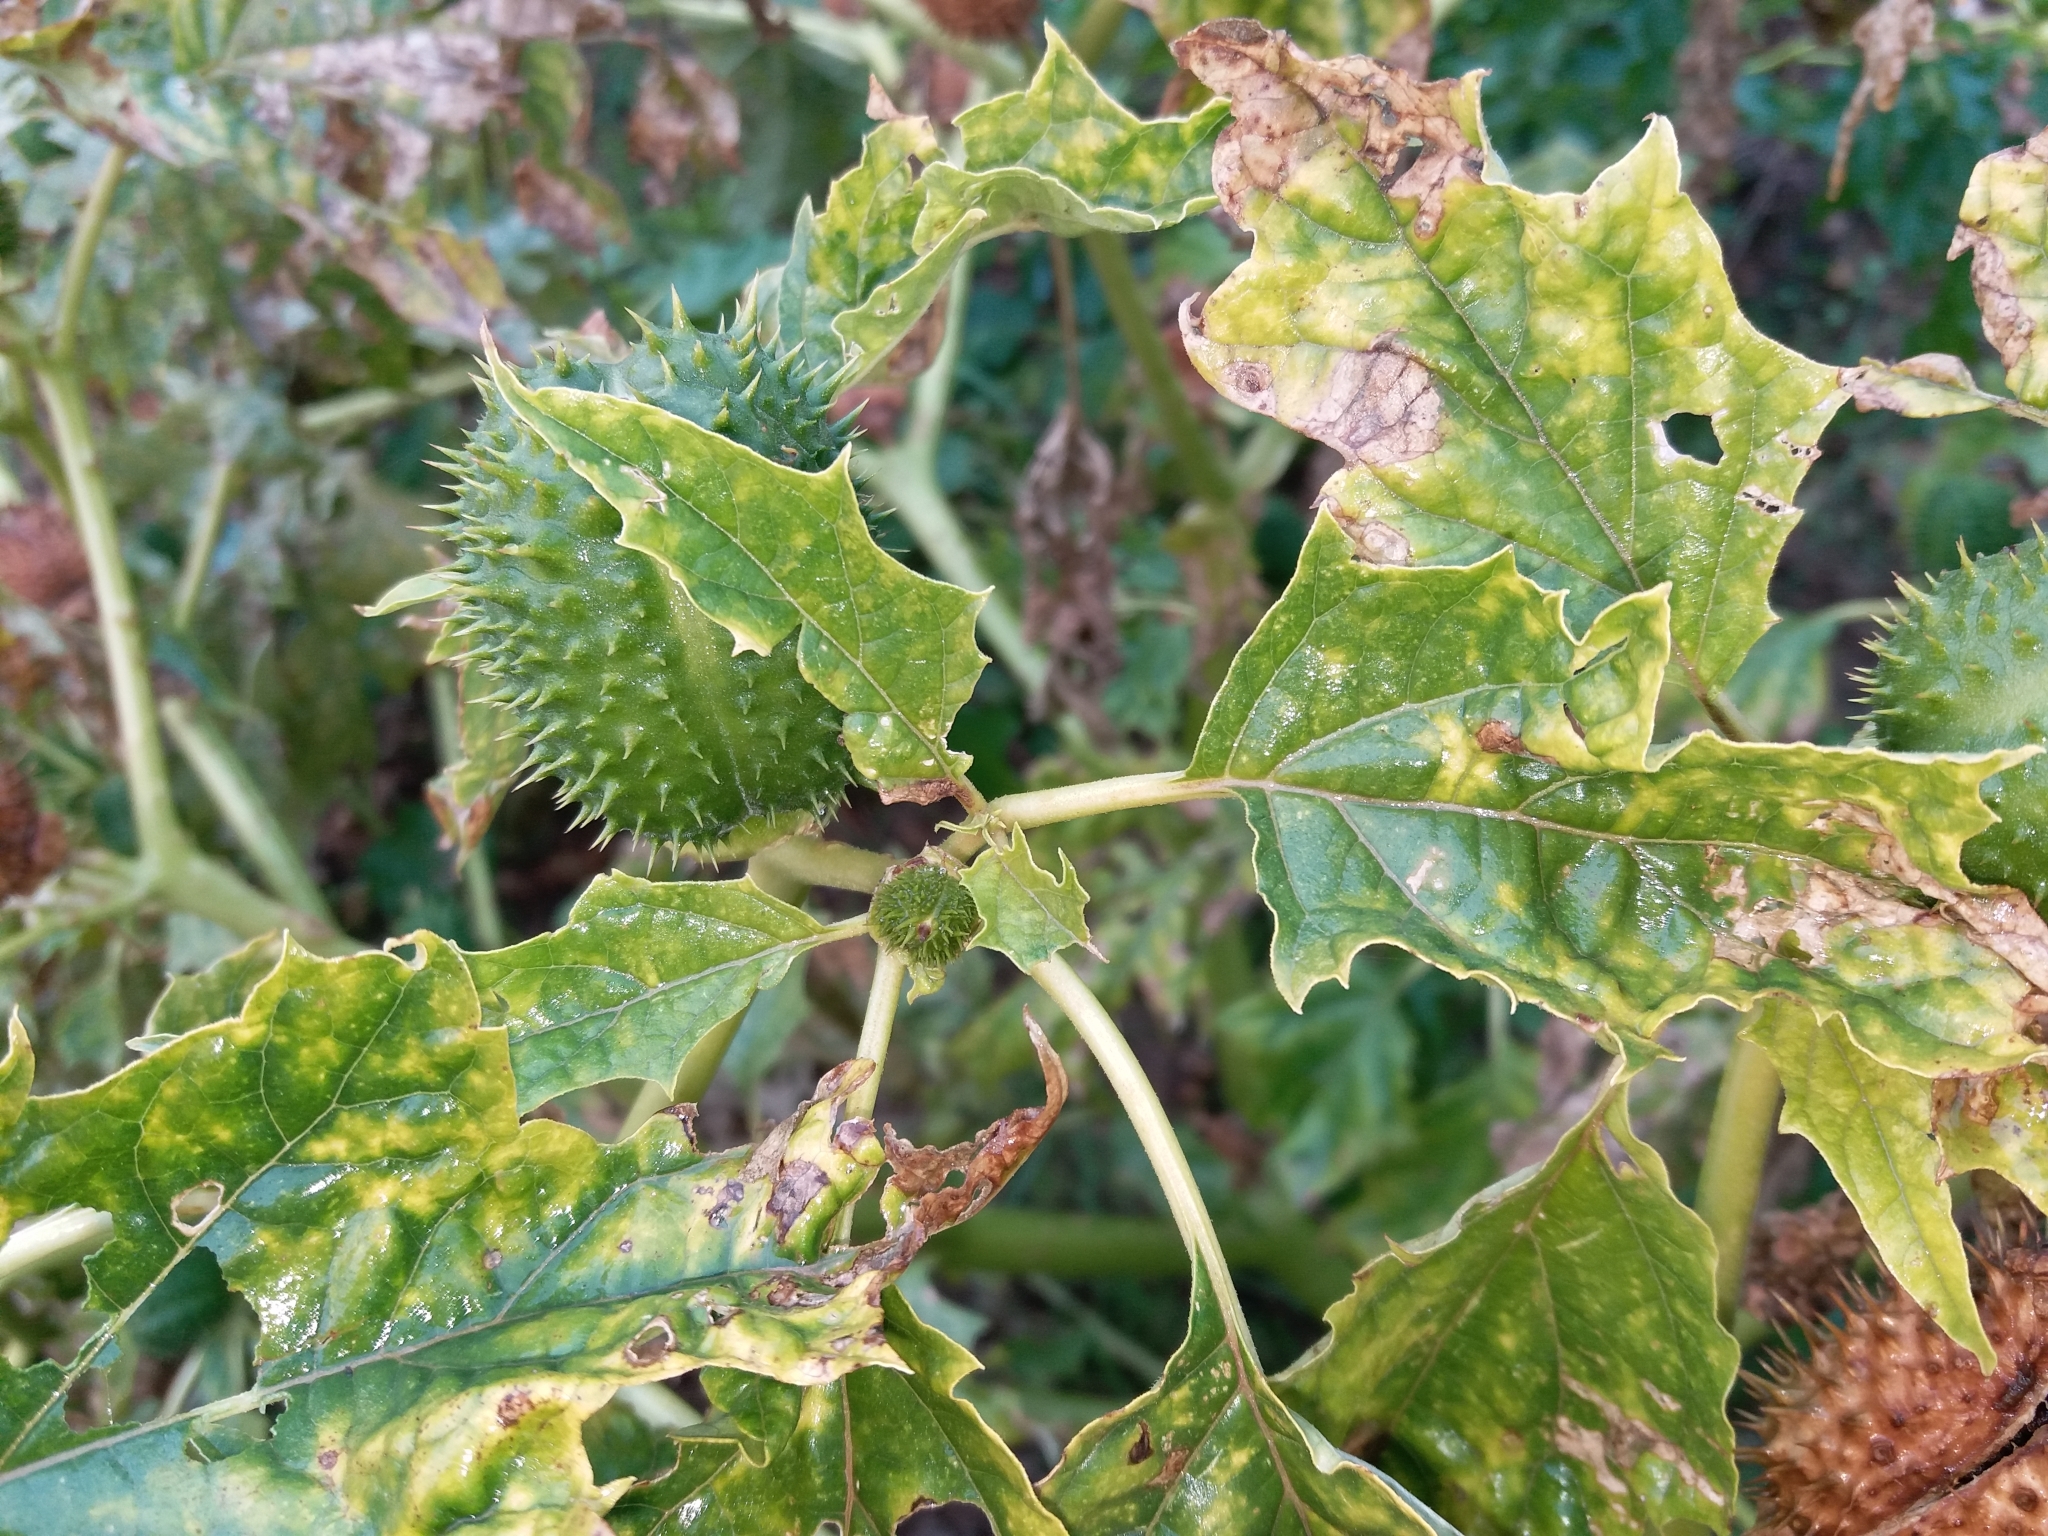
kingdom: Plantae
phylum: Tracheophyta
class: Magnoliopsida
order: Solanales
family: Solanaceae
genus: Datura
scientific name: Datura stramonium
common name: Thorn-apple
